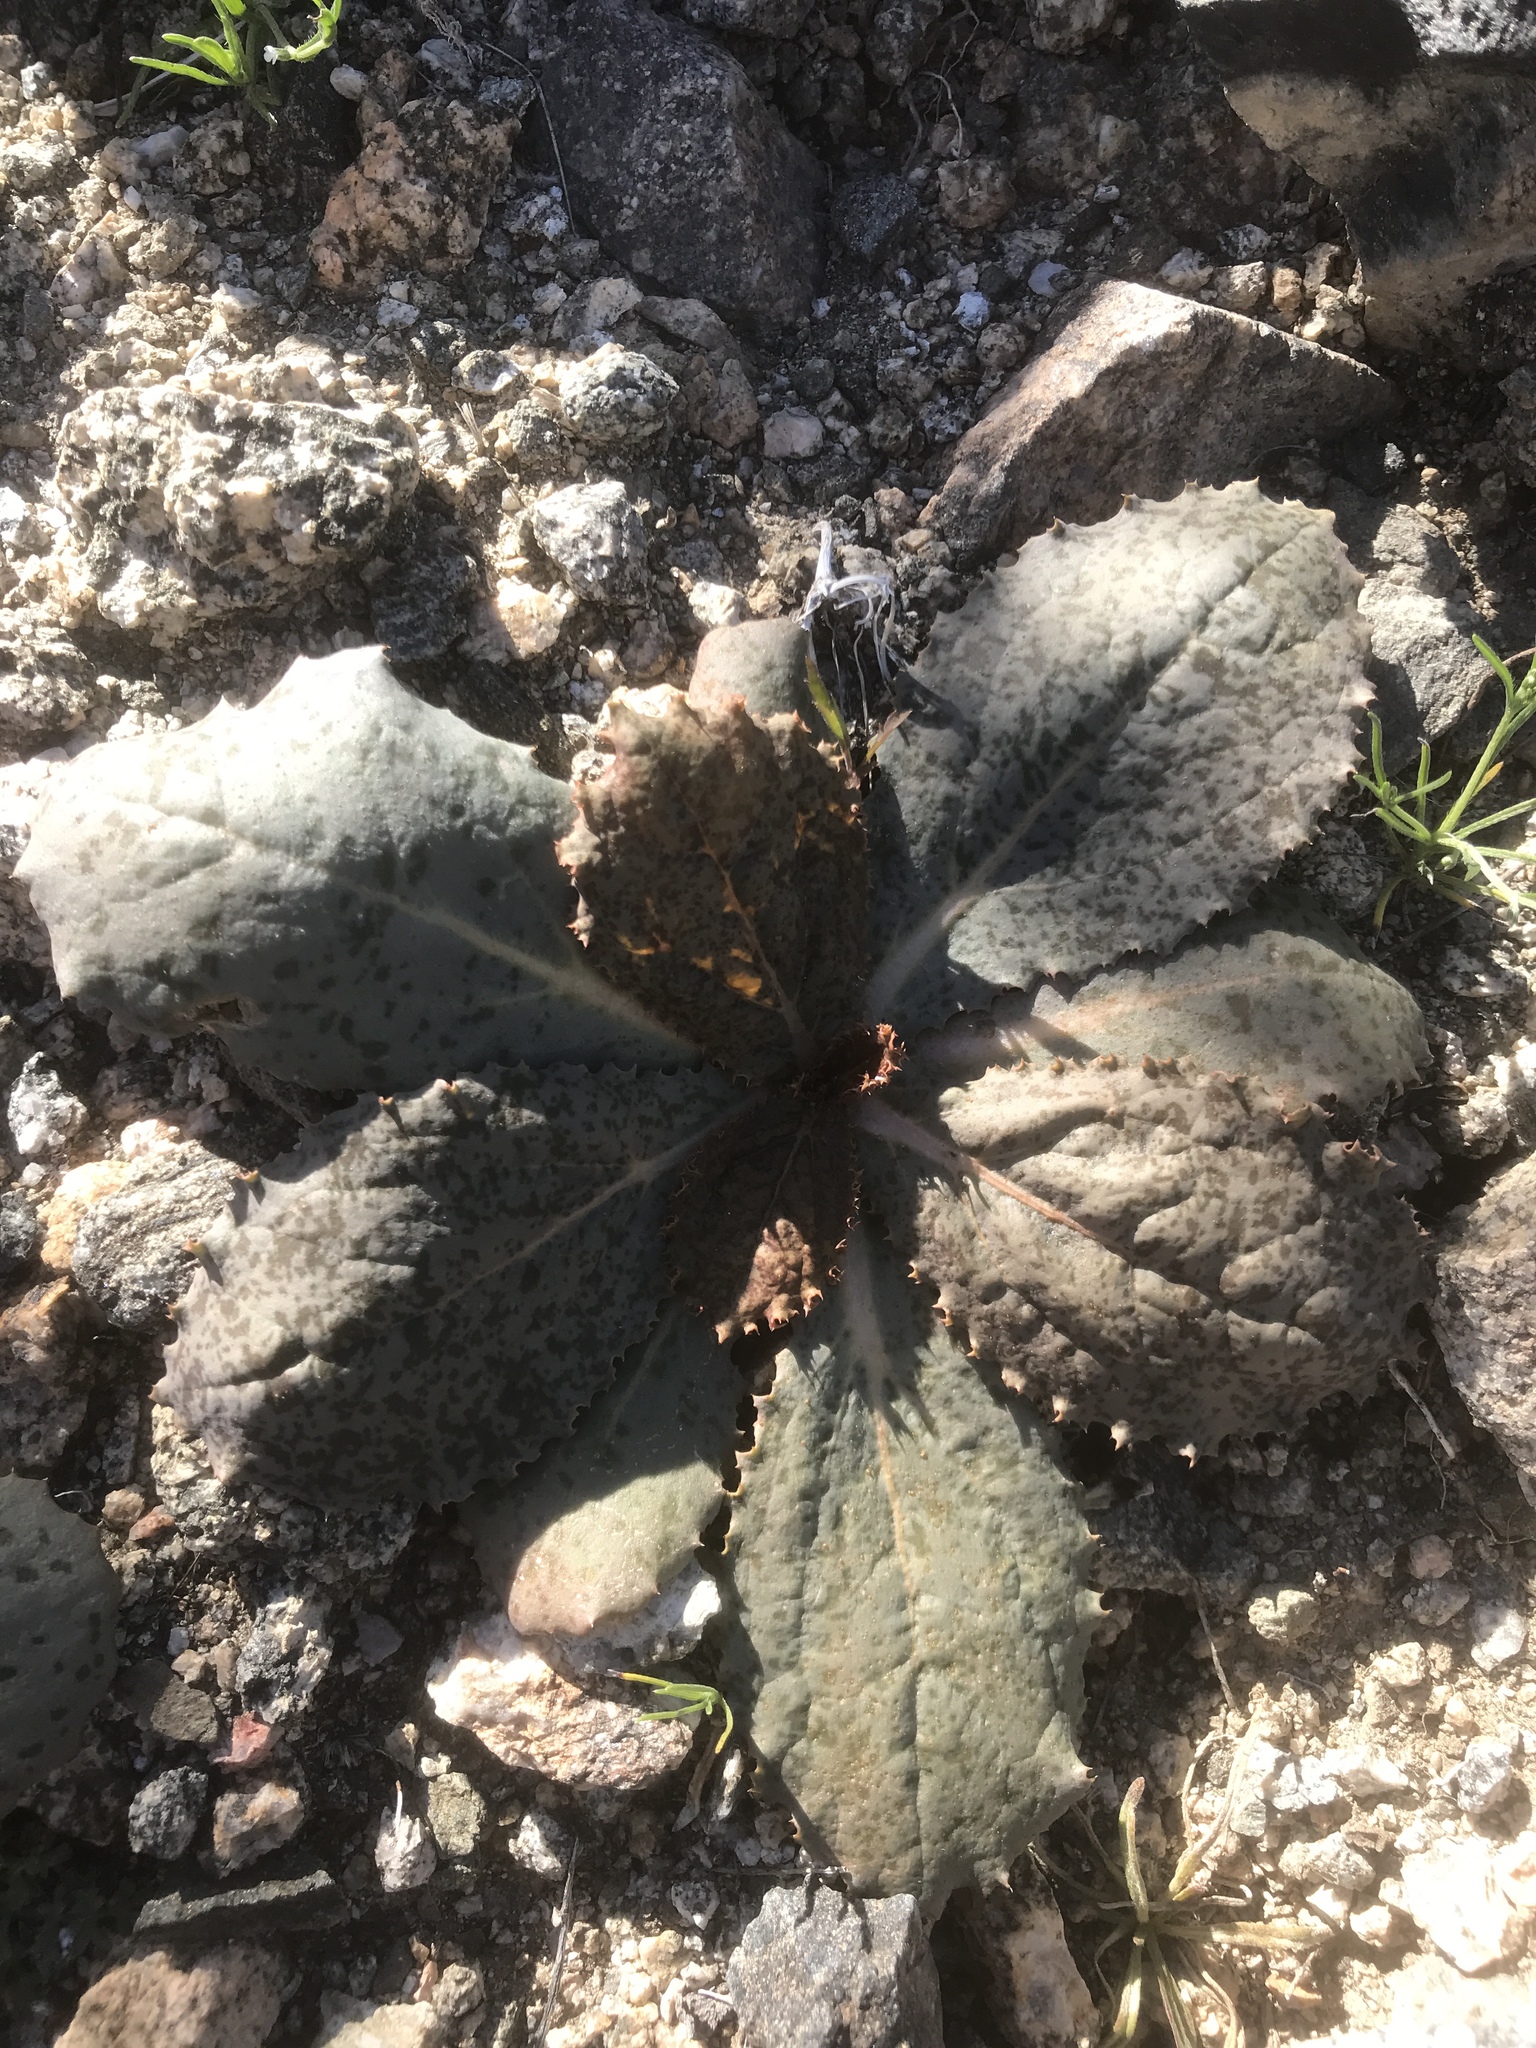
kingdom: Plantae
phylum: Tracheophyta
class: Magnoliopsida
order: Asterales
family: Asteraceae
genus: Atrichoseris
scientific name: Atrichoseris platyphylla
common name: Tobaccoweed
